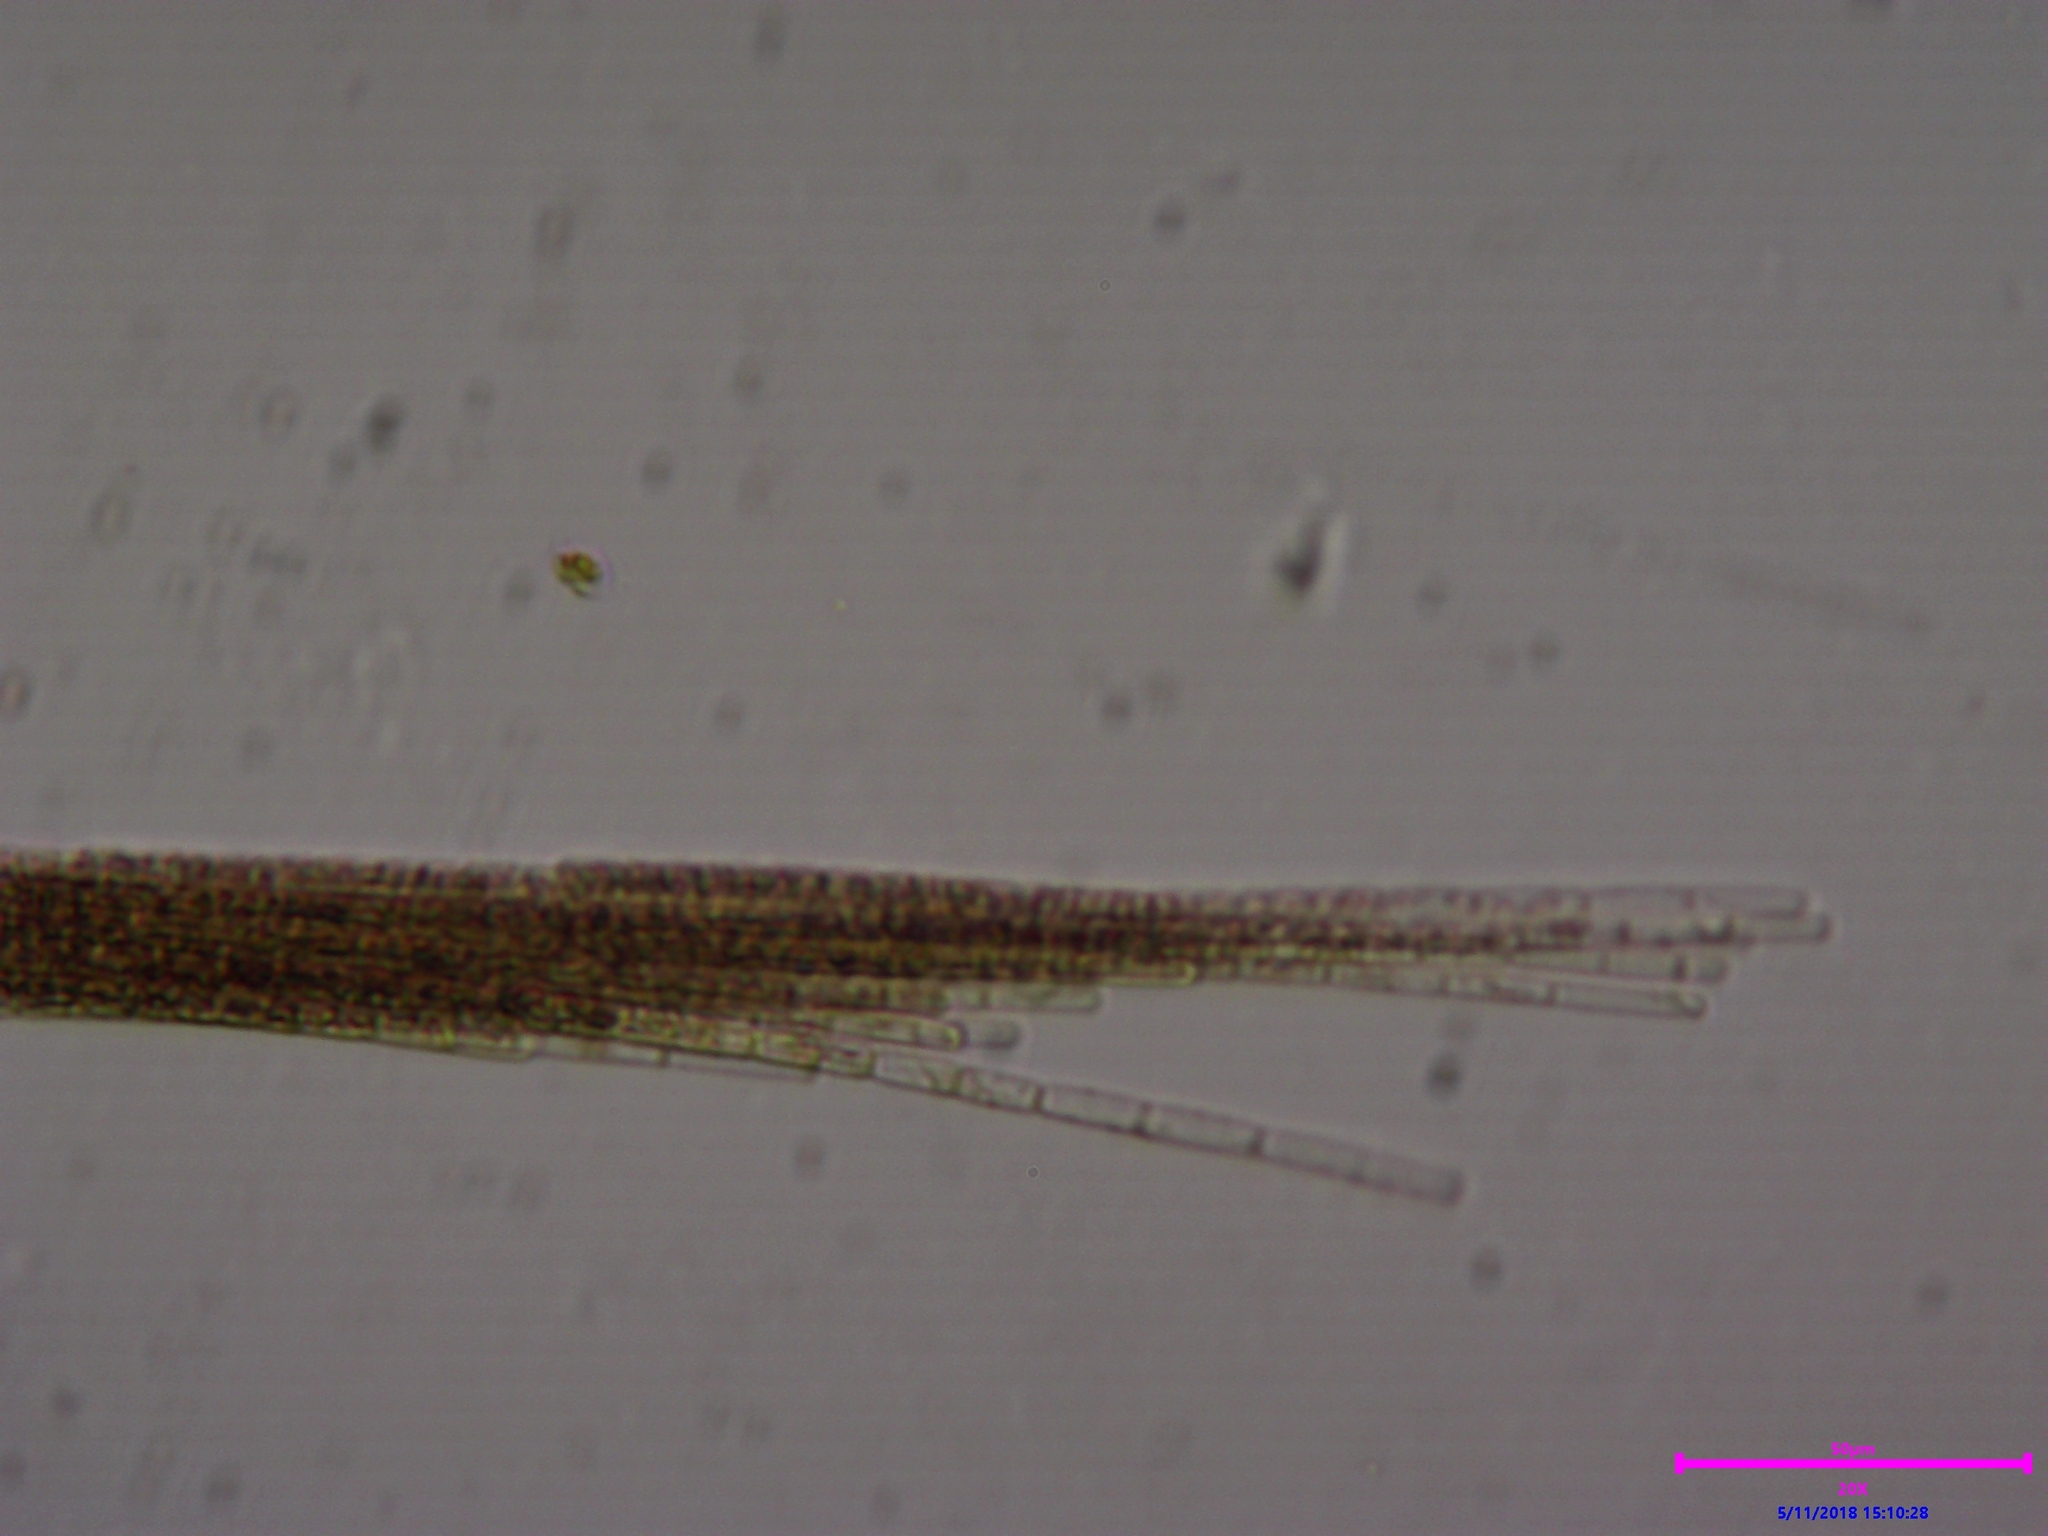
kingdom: Bacteria
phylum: Cyanobacteria
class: Cyanobacteriia
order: Cyanobacteriales
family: Aphanizomenonaceae
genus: Aphanizomenon
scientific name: Aphanizomenon flosaquae
